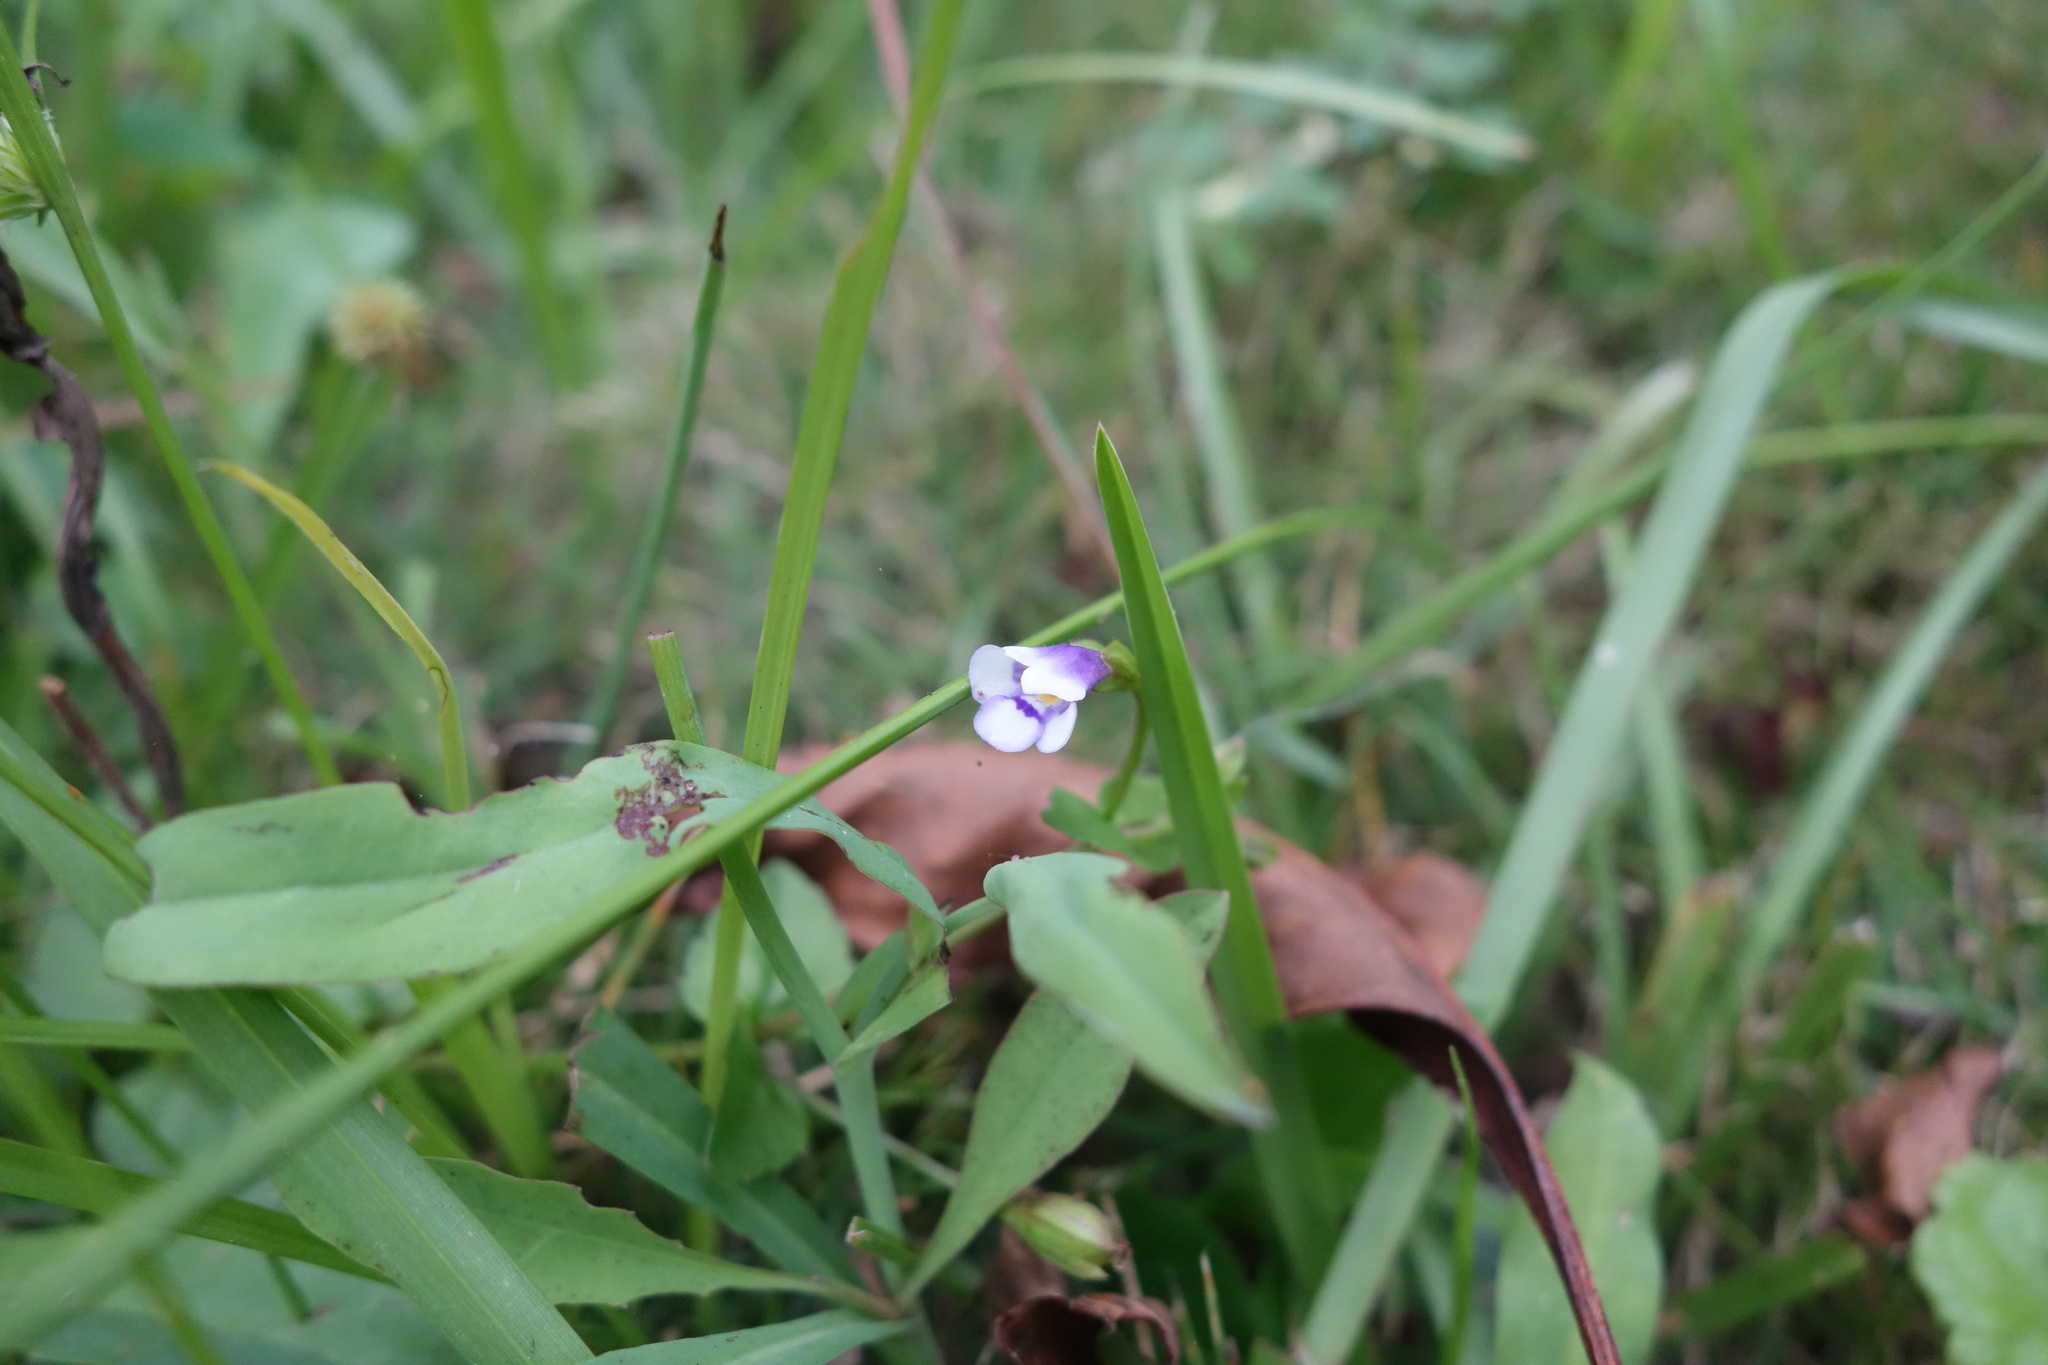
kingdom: Plantae
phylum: Tracheophyta
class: Magnoliopsida
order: Lamiales
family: Linderniaceae
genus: Torenia
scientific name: Torenia crustacea
